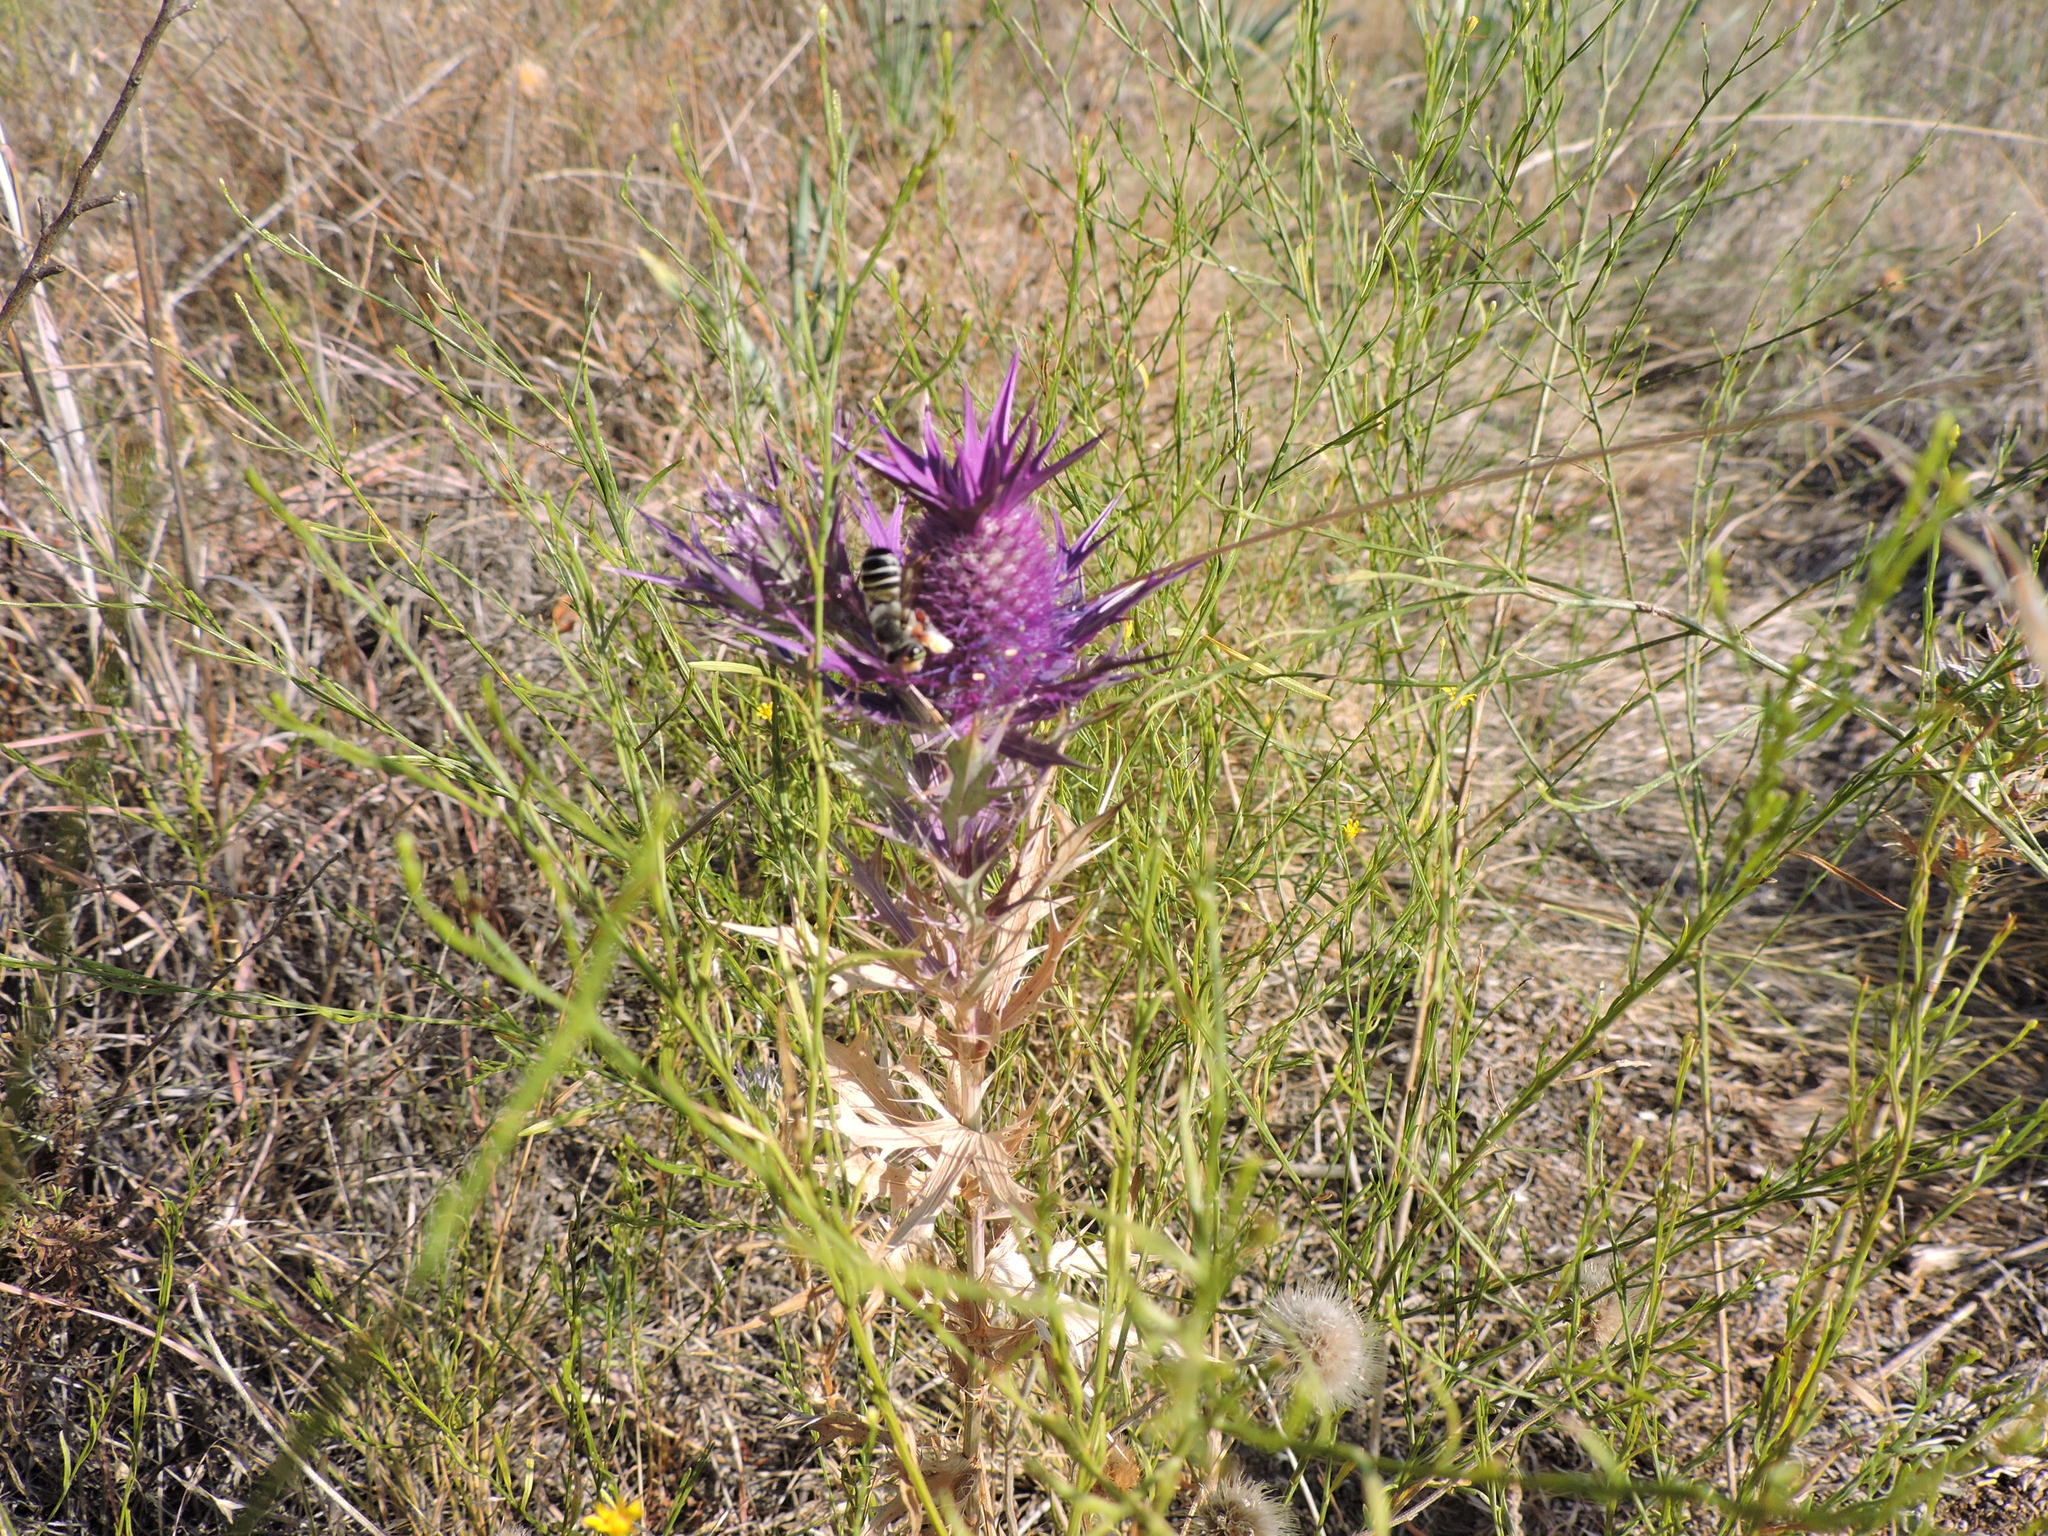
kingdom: Animalia
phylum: Arthropoda
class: Insecta
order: Hymenoptera
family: Megachilidae
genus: Megachile
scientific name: Megachile policaris
